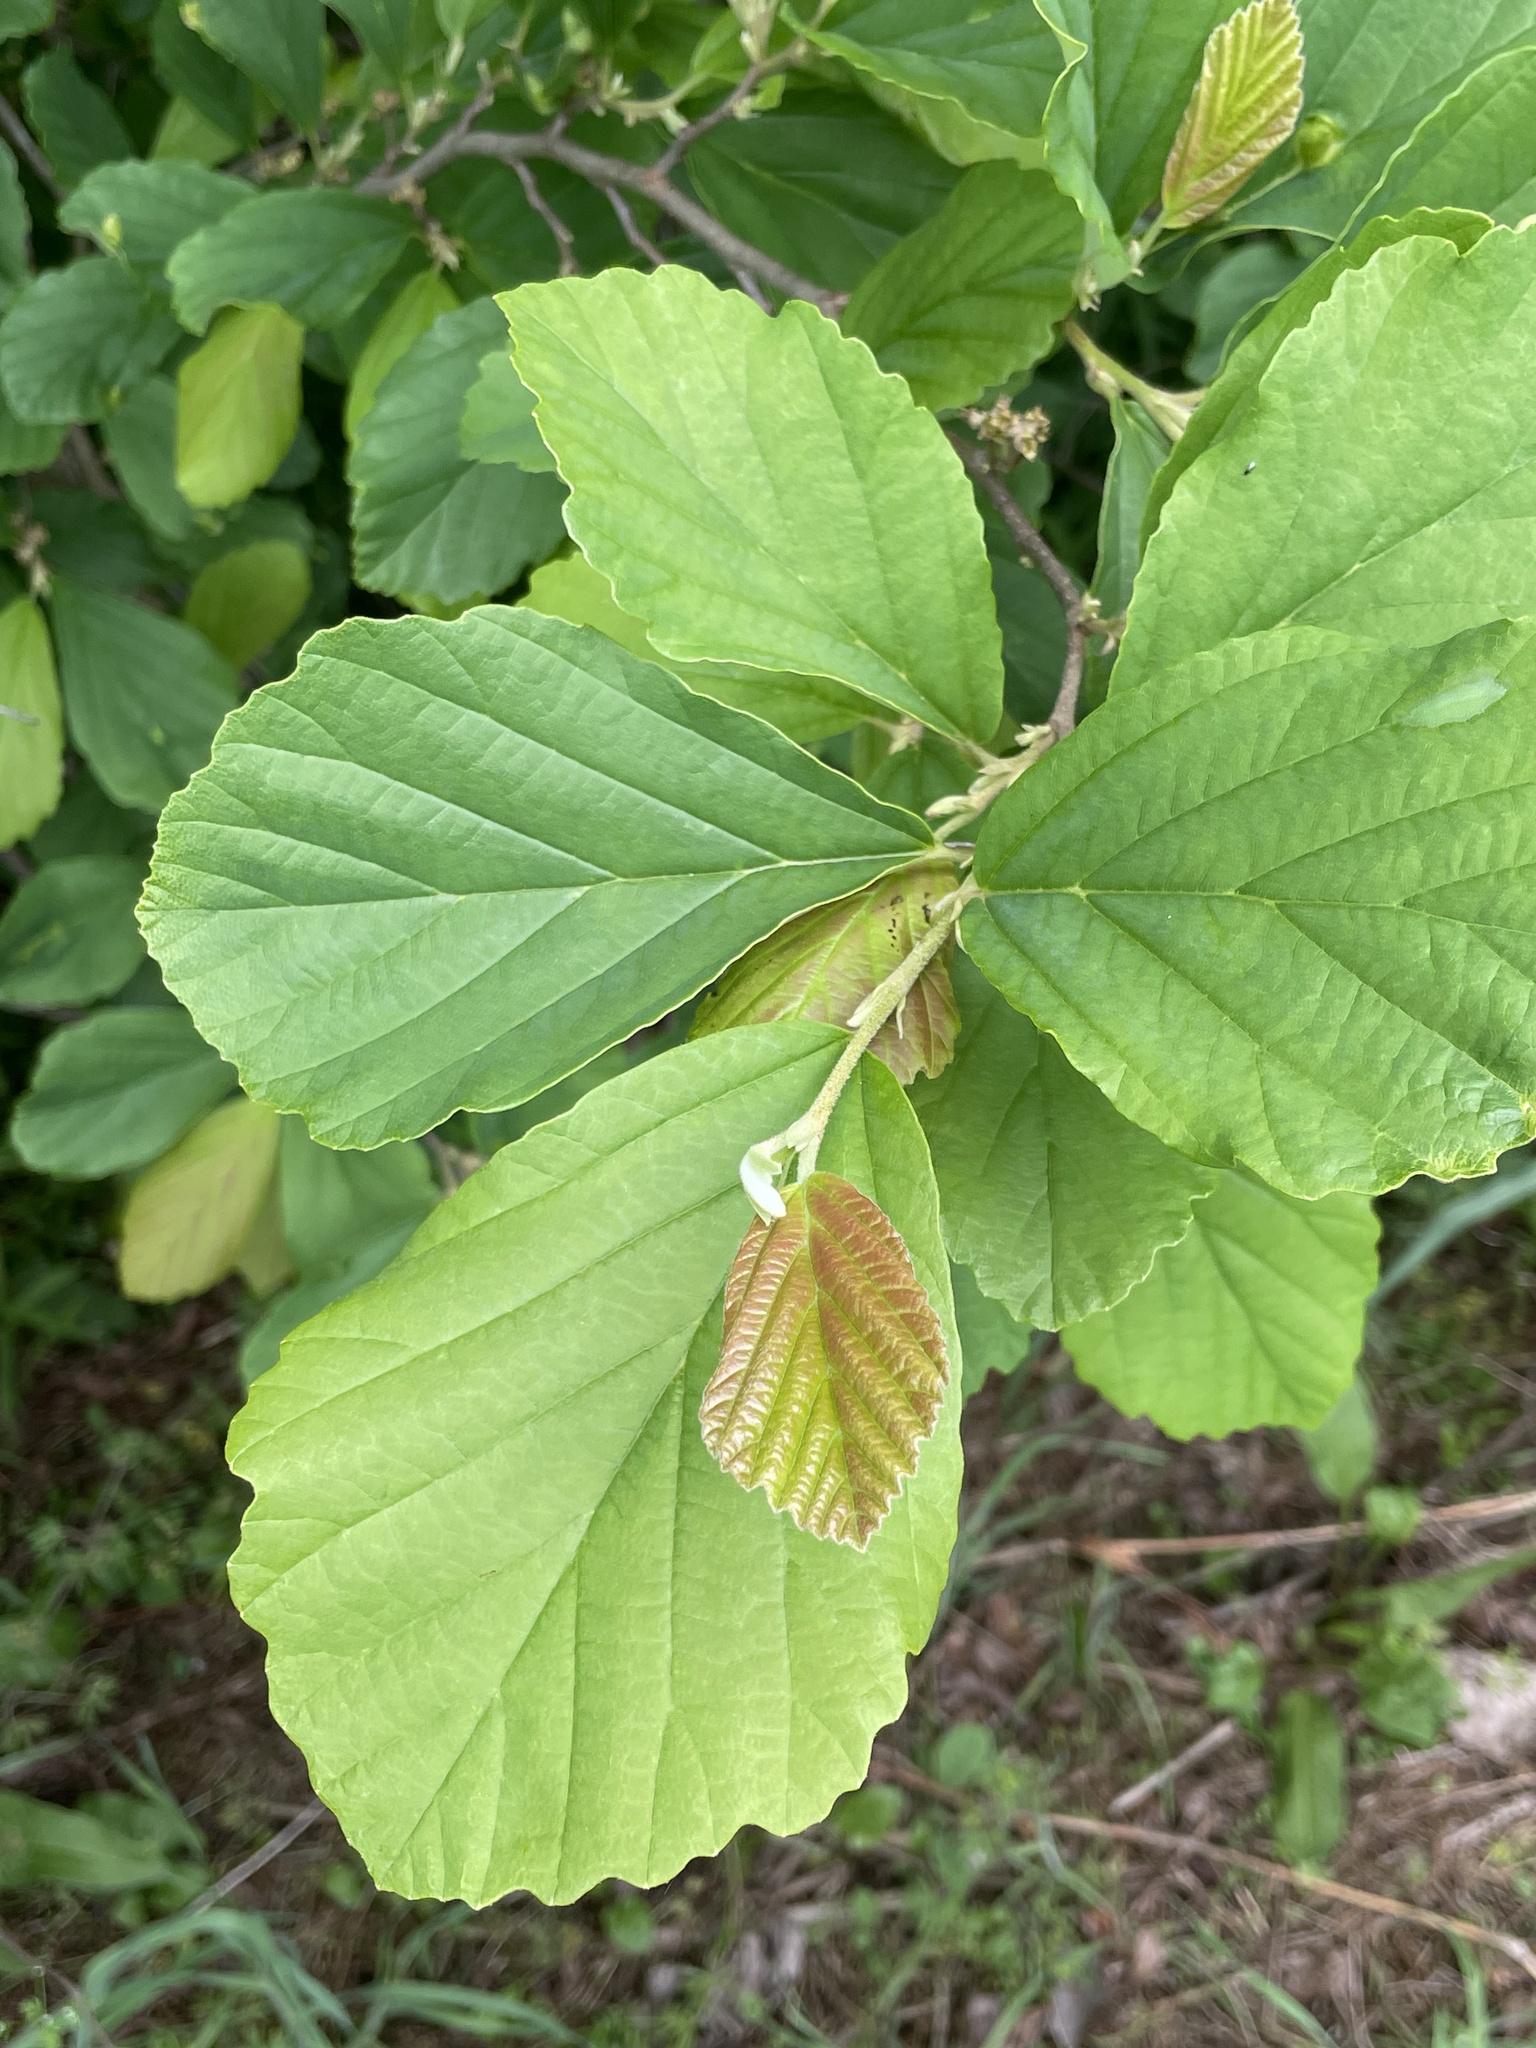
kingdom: Plantae
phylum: Tracheophyta
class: Magnoliopsida
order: Saxifragales
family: Hamamelidaceae
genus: Hamamelis
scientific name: Hamamelis virginiana
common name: Witch-hazel
